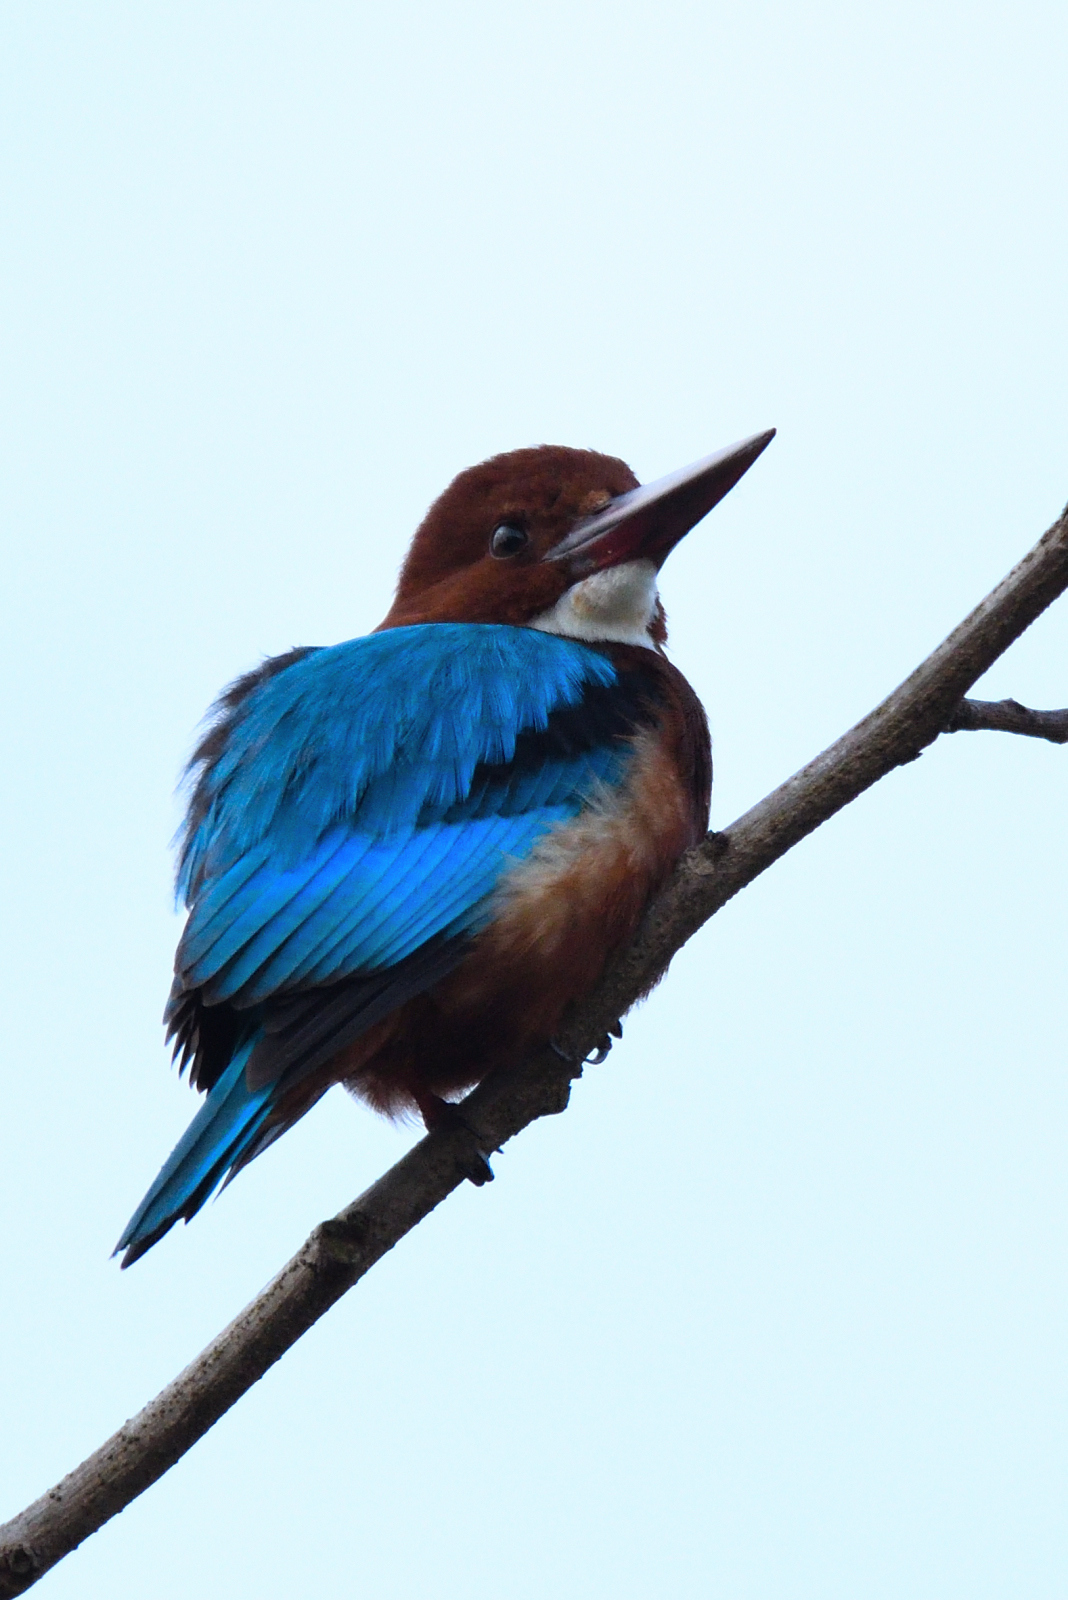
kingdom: Animalia
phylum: Chordata
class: Aves
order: Coraciiformes
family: Alcedinidae
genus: Halcyon
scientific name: Halcyon smyrnensis
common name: White-throated kingfisher
